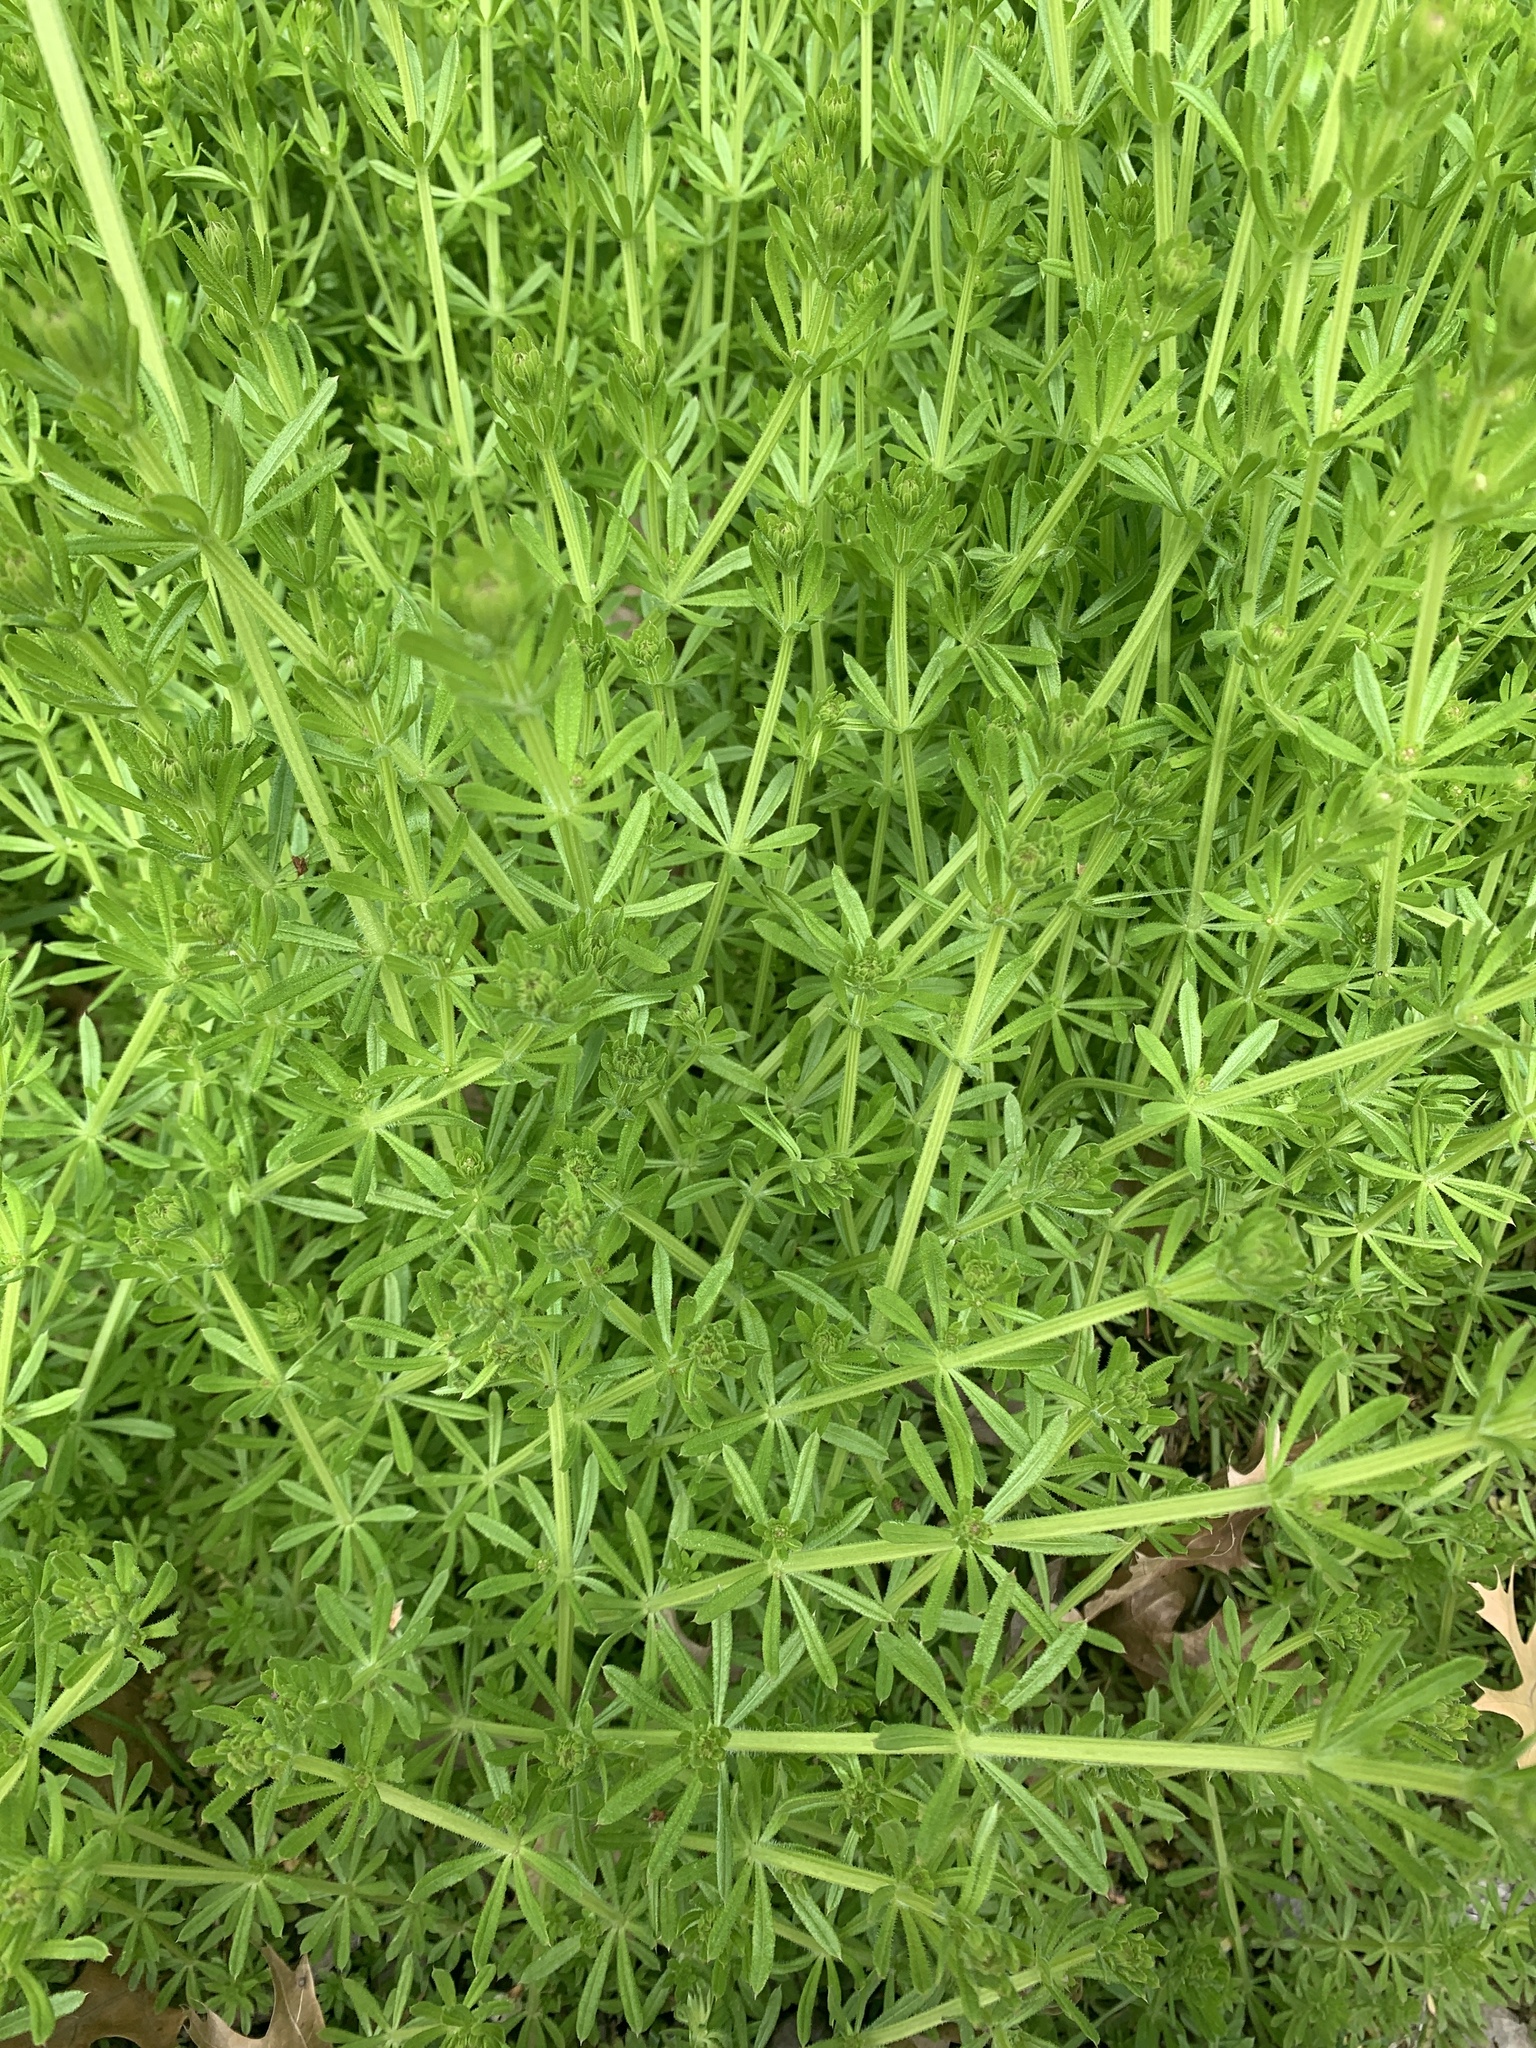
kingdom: Plantae
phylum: Tracheophyta
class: Magnoliopsida
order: Gentianales
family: Rubiaceae
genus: Galium
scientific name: Galium aparine
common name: Cleavers
